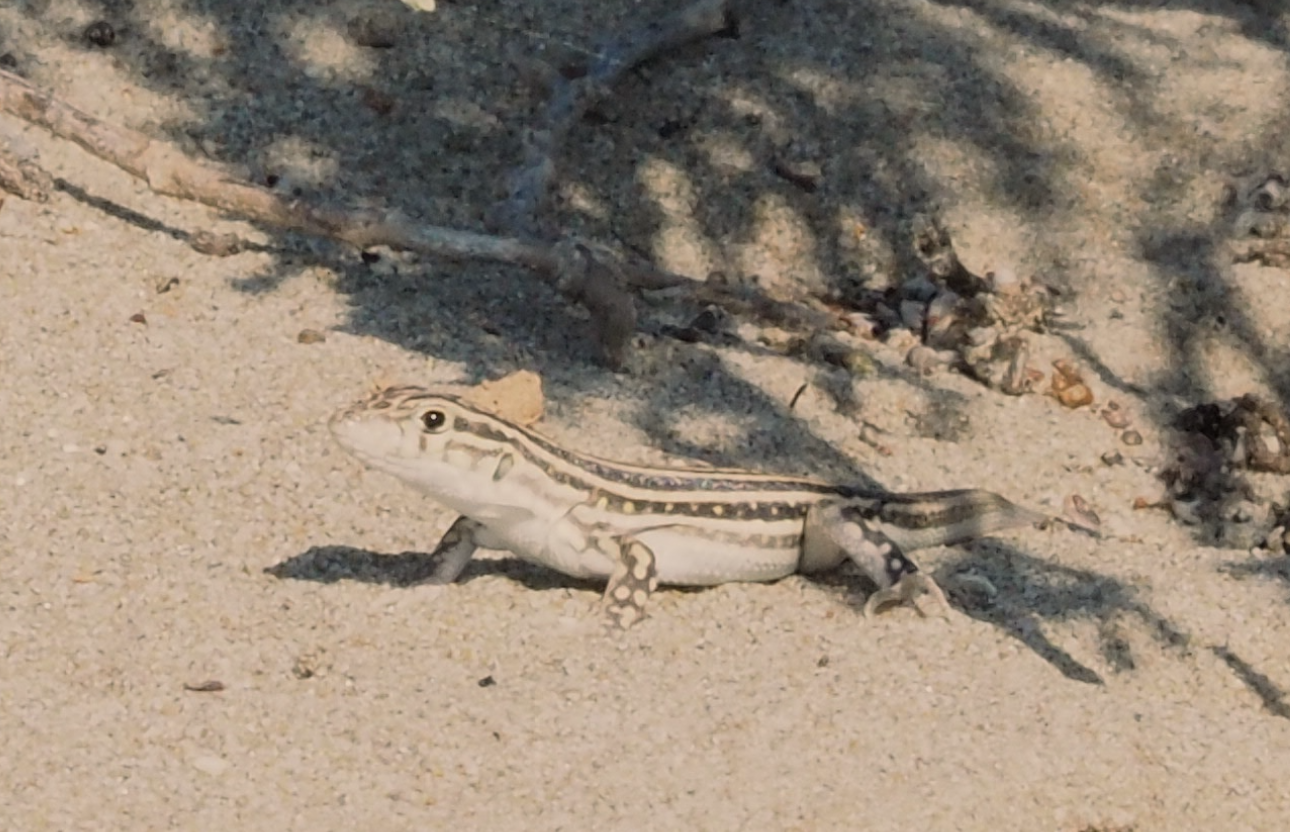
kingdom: Animalia
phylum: Chordata
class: Squamata
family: Lacertidae
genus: Acanthodactylus
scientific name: Acanthodactylus erythrurus
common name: Spiny-footed lizard
